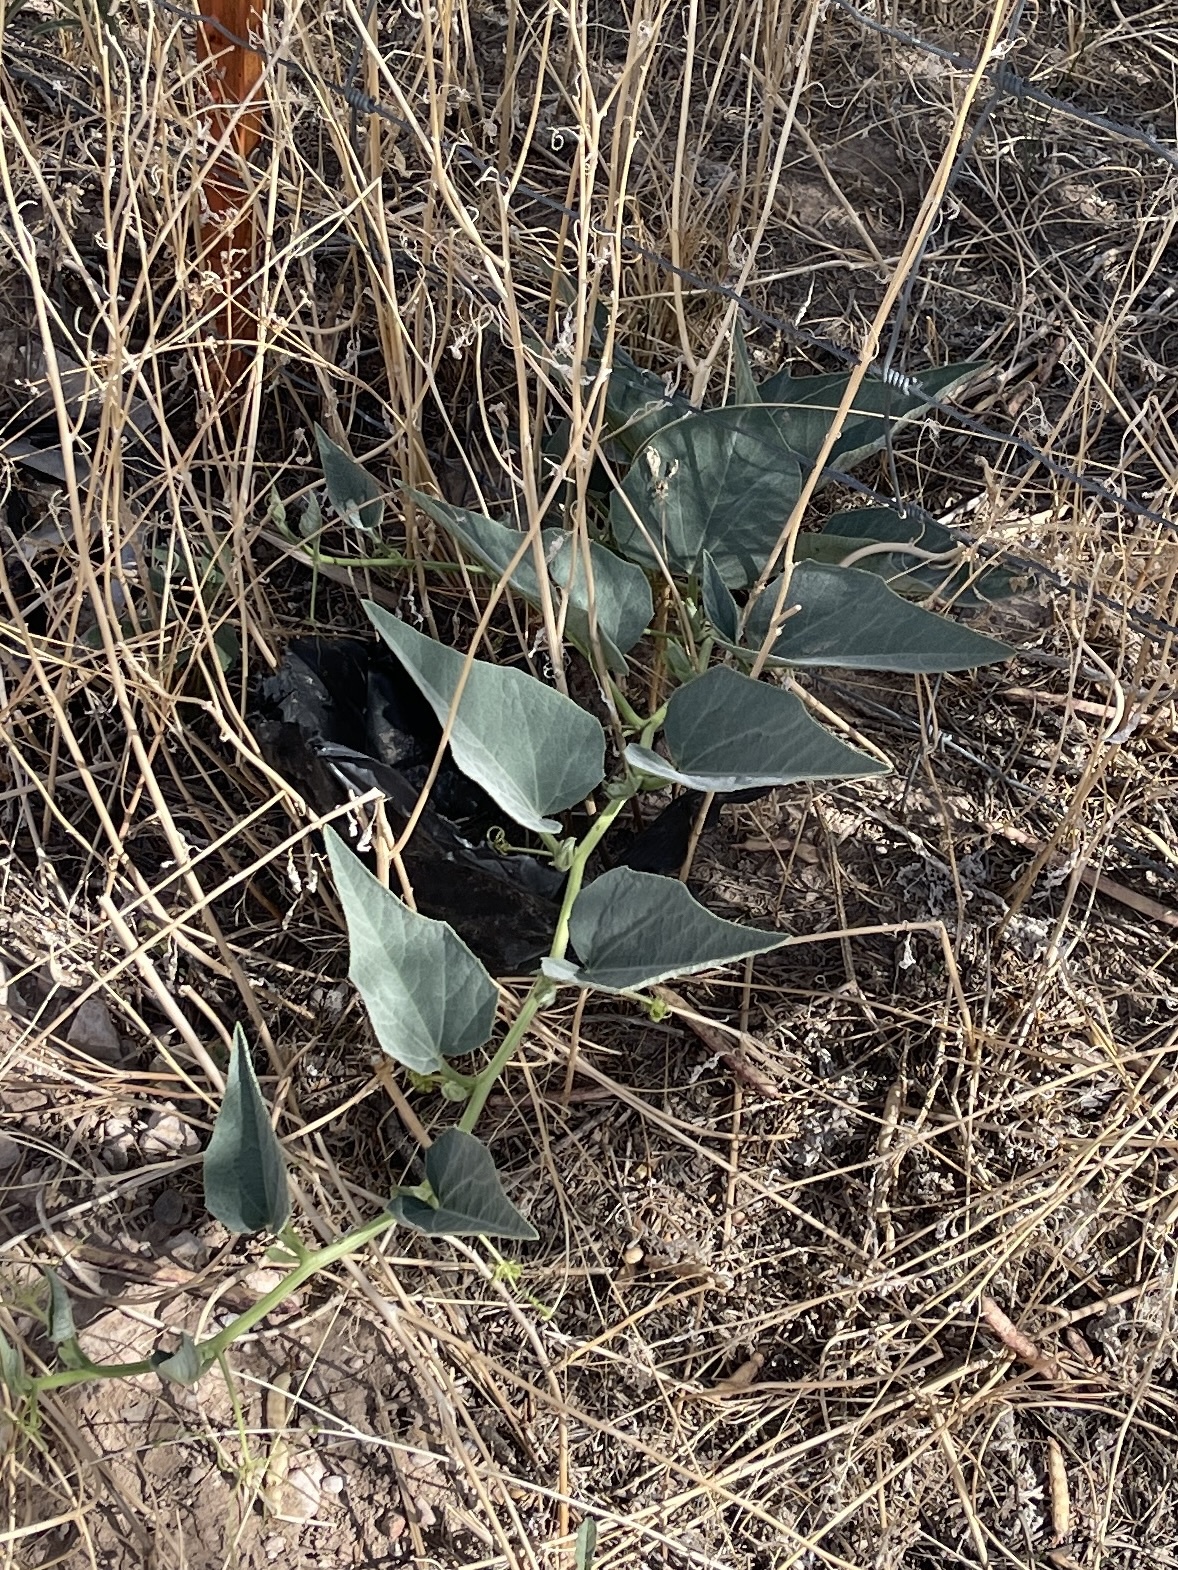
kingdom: Plantae
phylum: Tracheophyta
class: Magnoliopsida
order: Cucurbitales
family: Cucurbitaceae
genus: Cucurbita
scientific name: Cucurbita foetidissima
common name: Buffalo gourd
